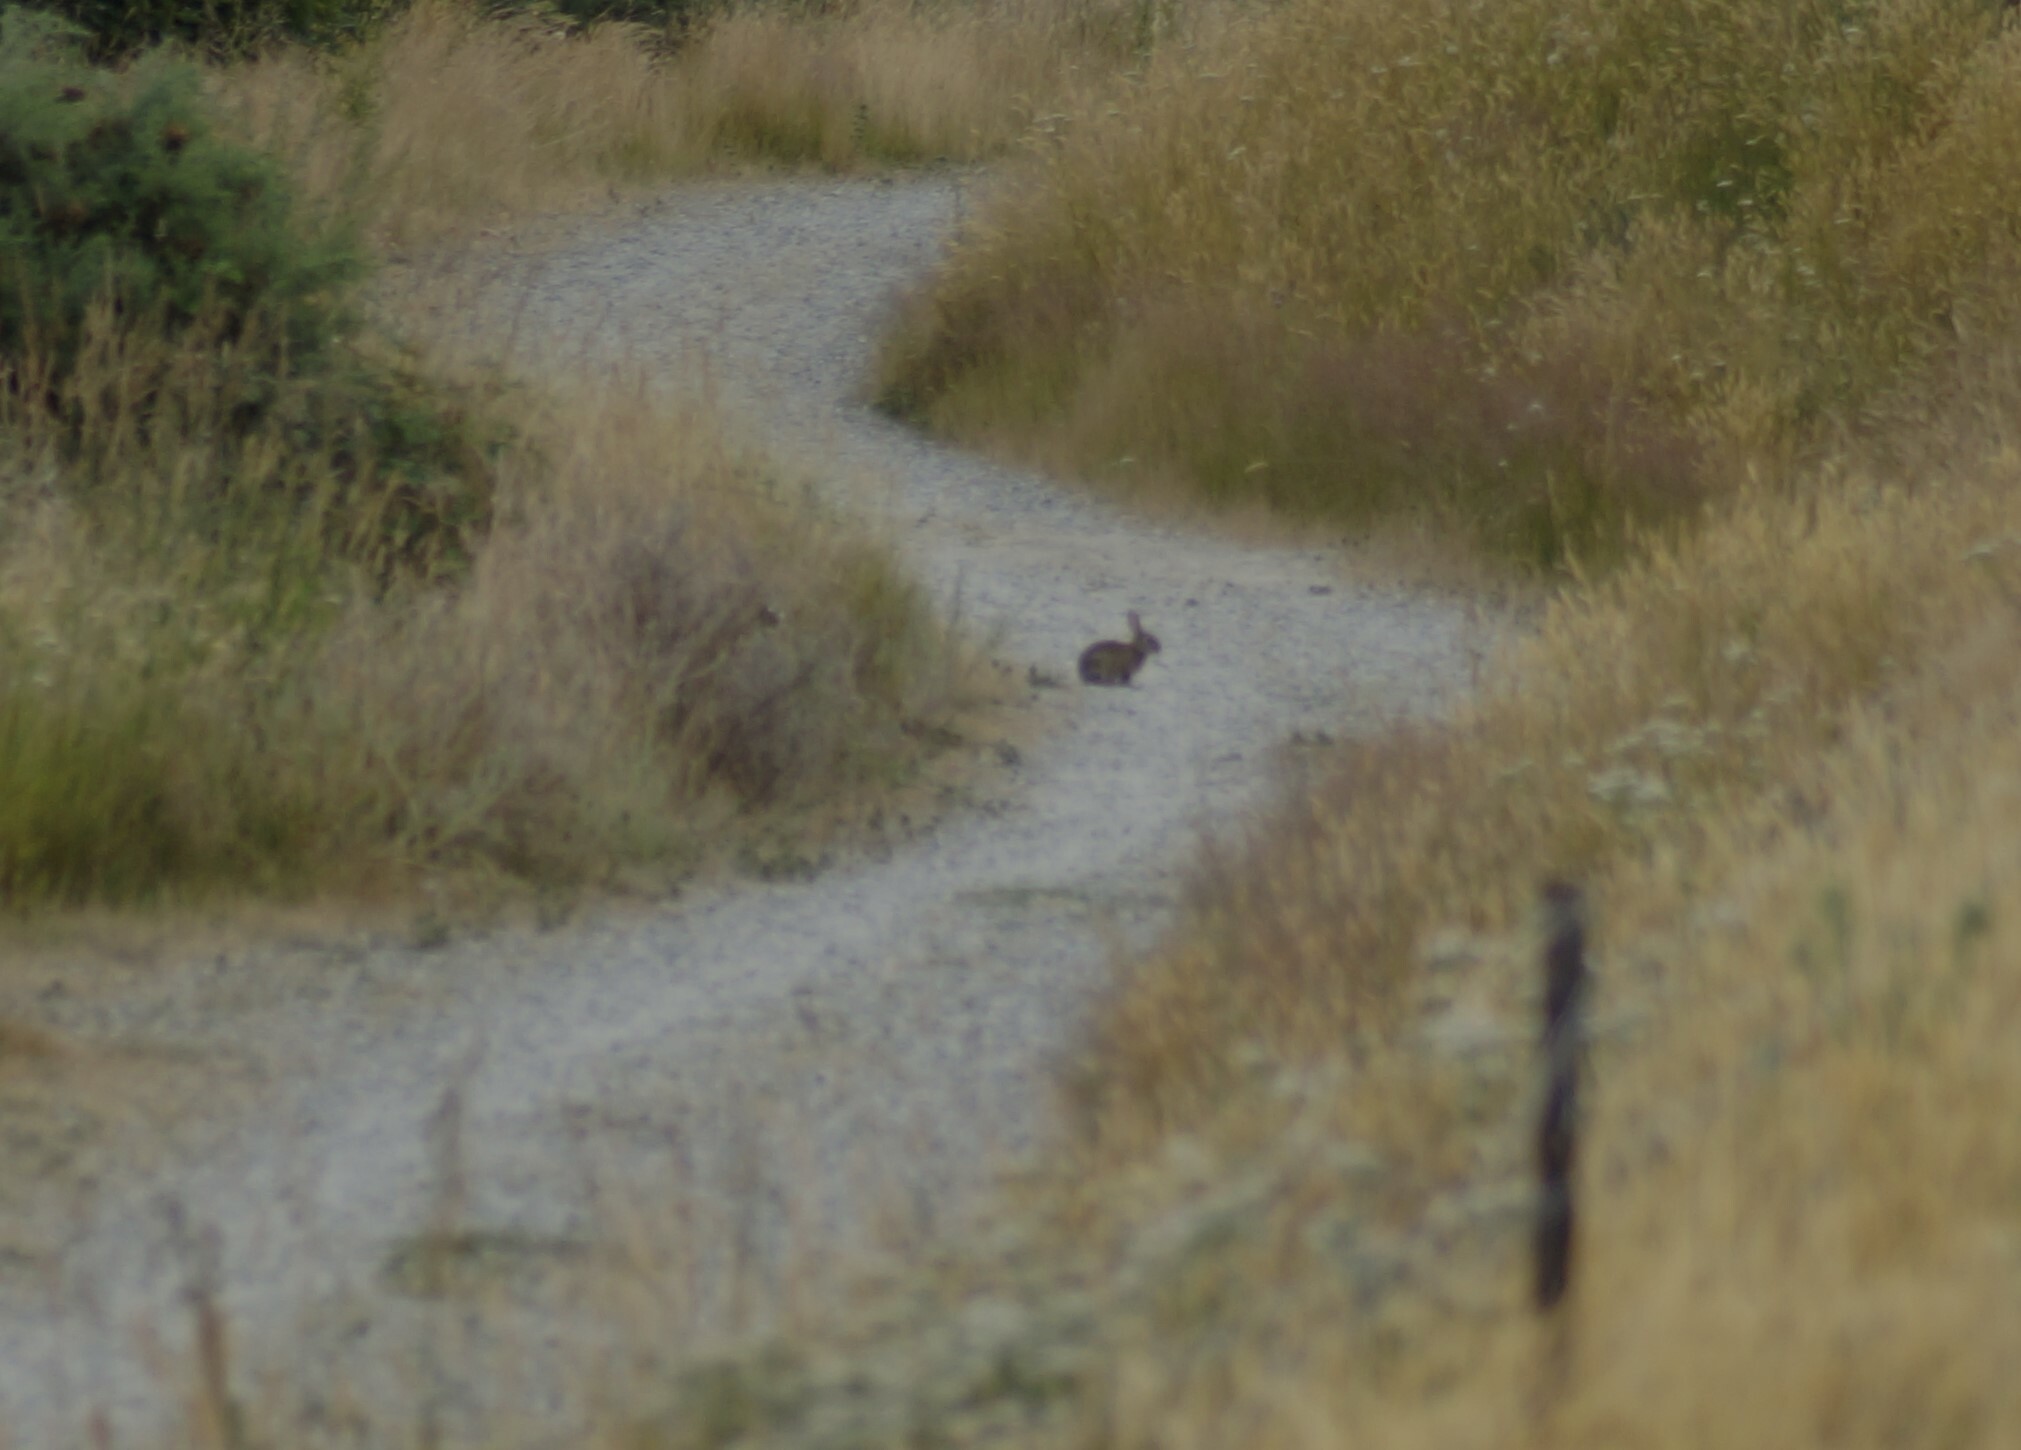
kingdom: Animalia
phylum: Chordata
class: Mammalia
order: Lagomorpha
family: Leporidae
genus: Oryctolagus
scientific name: Oryctolagus cuniculus
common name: European rabbit
